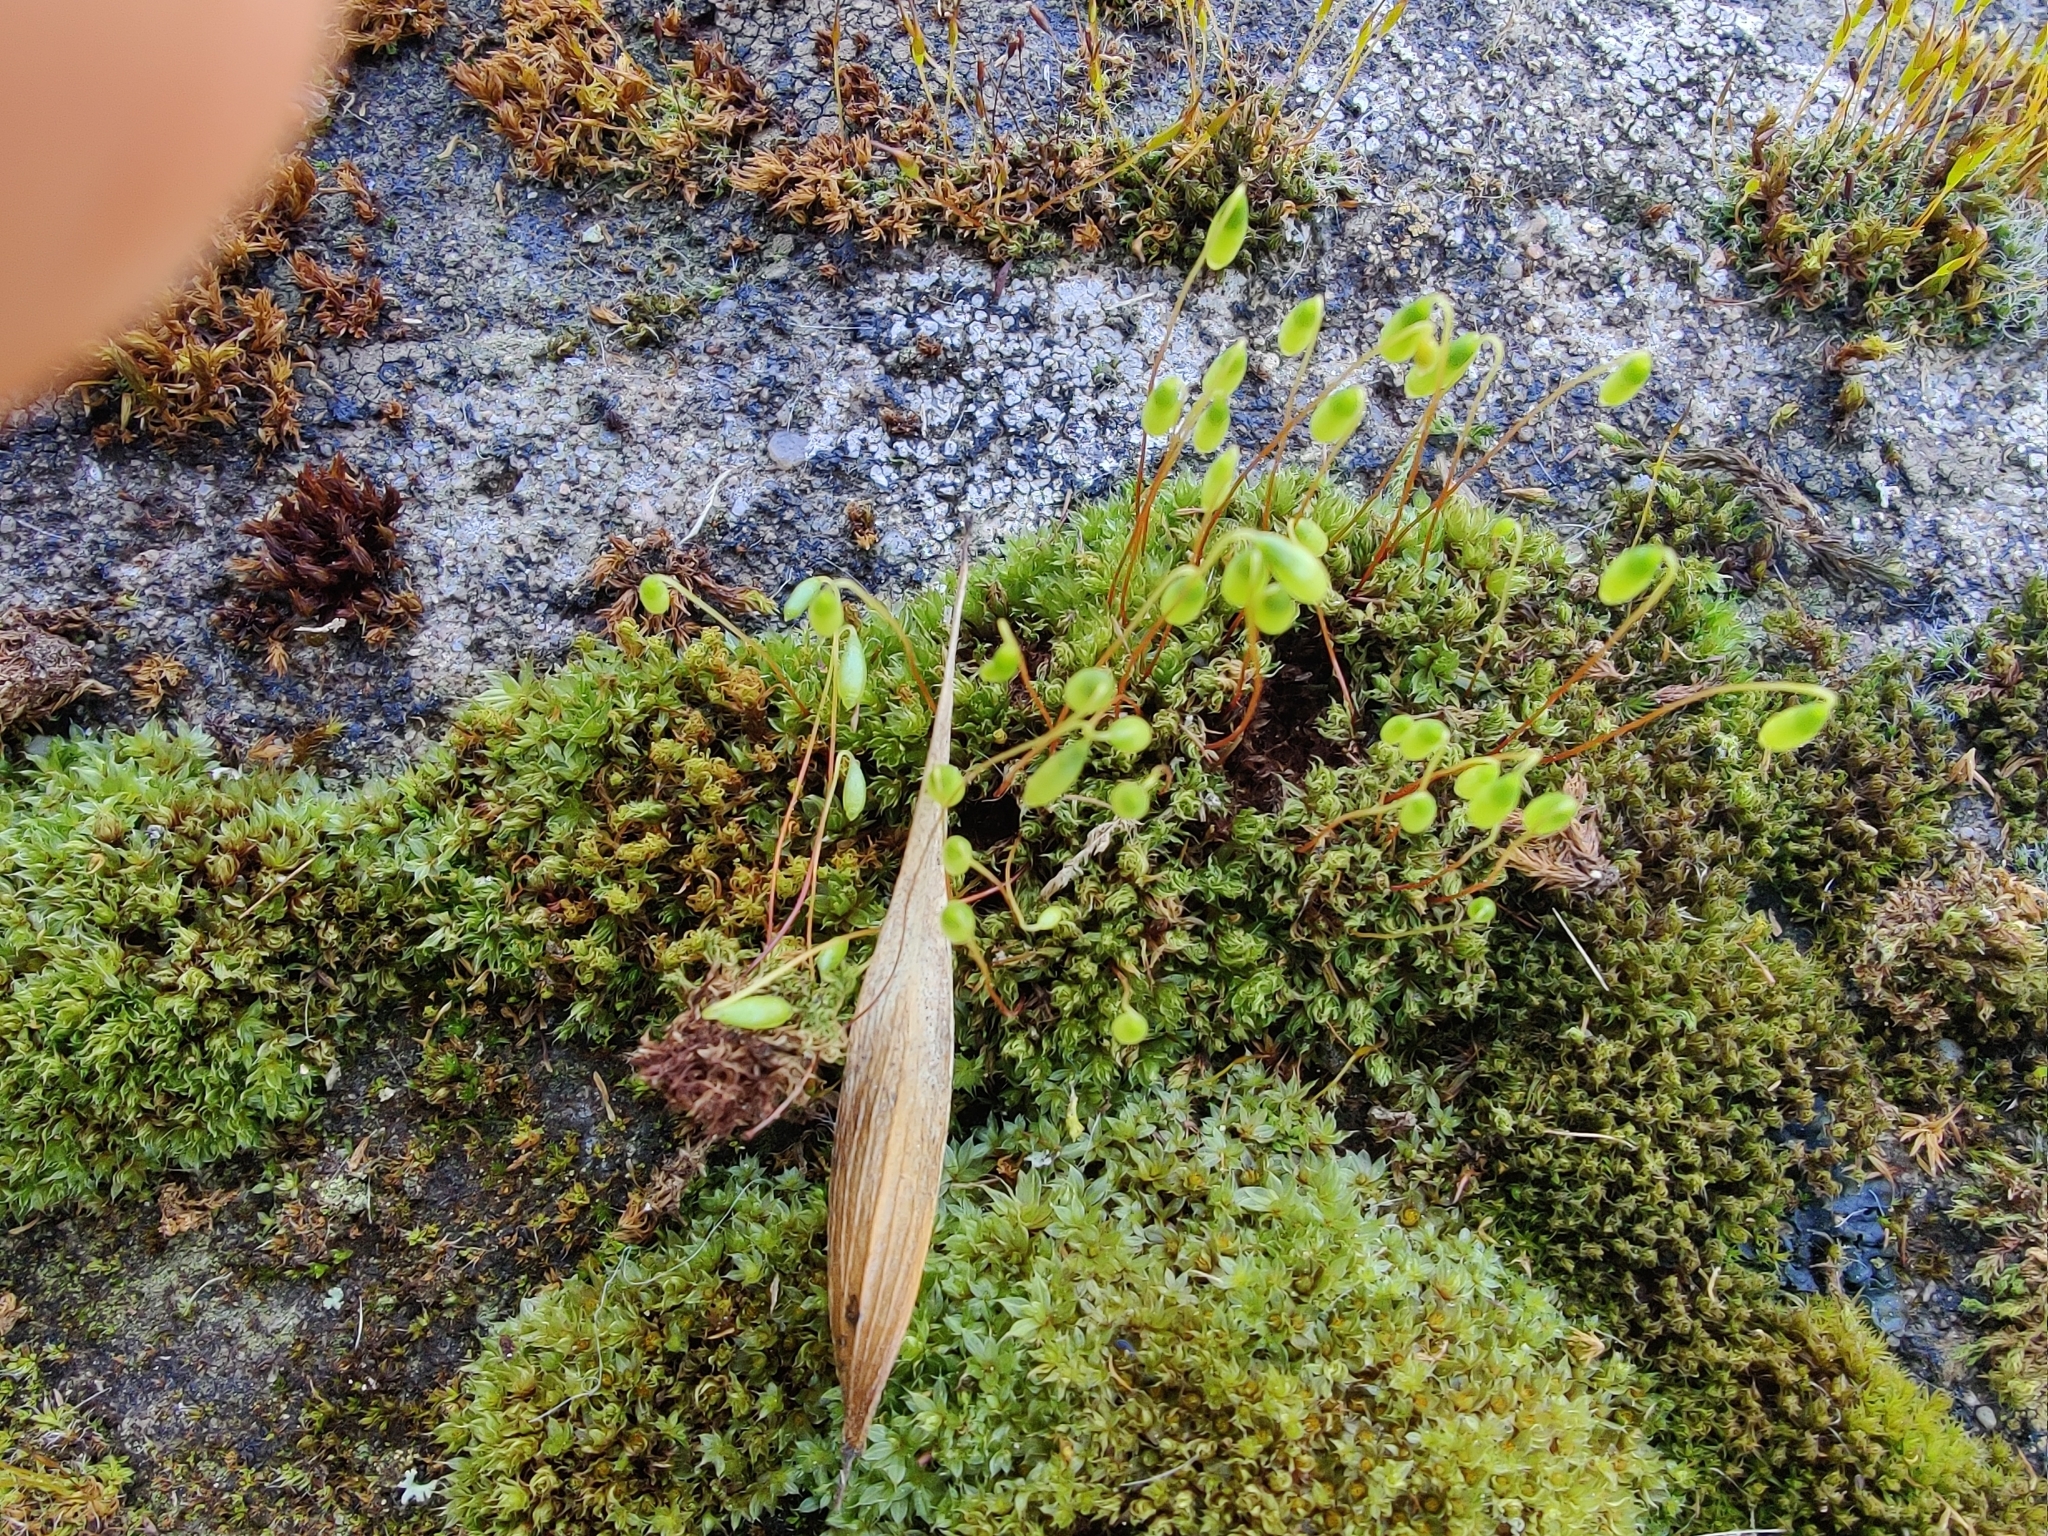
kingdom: Plantae
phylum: Bryophyta
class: Bryopsida
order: Bryales
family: Bryaceae
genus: Rosulabryum
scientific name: Rosulabryum capillare
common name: Capillary thread-moss
